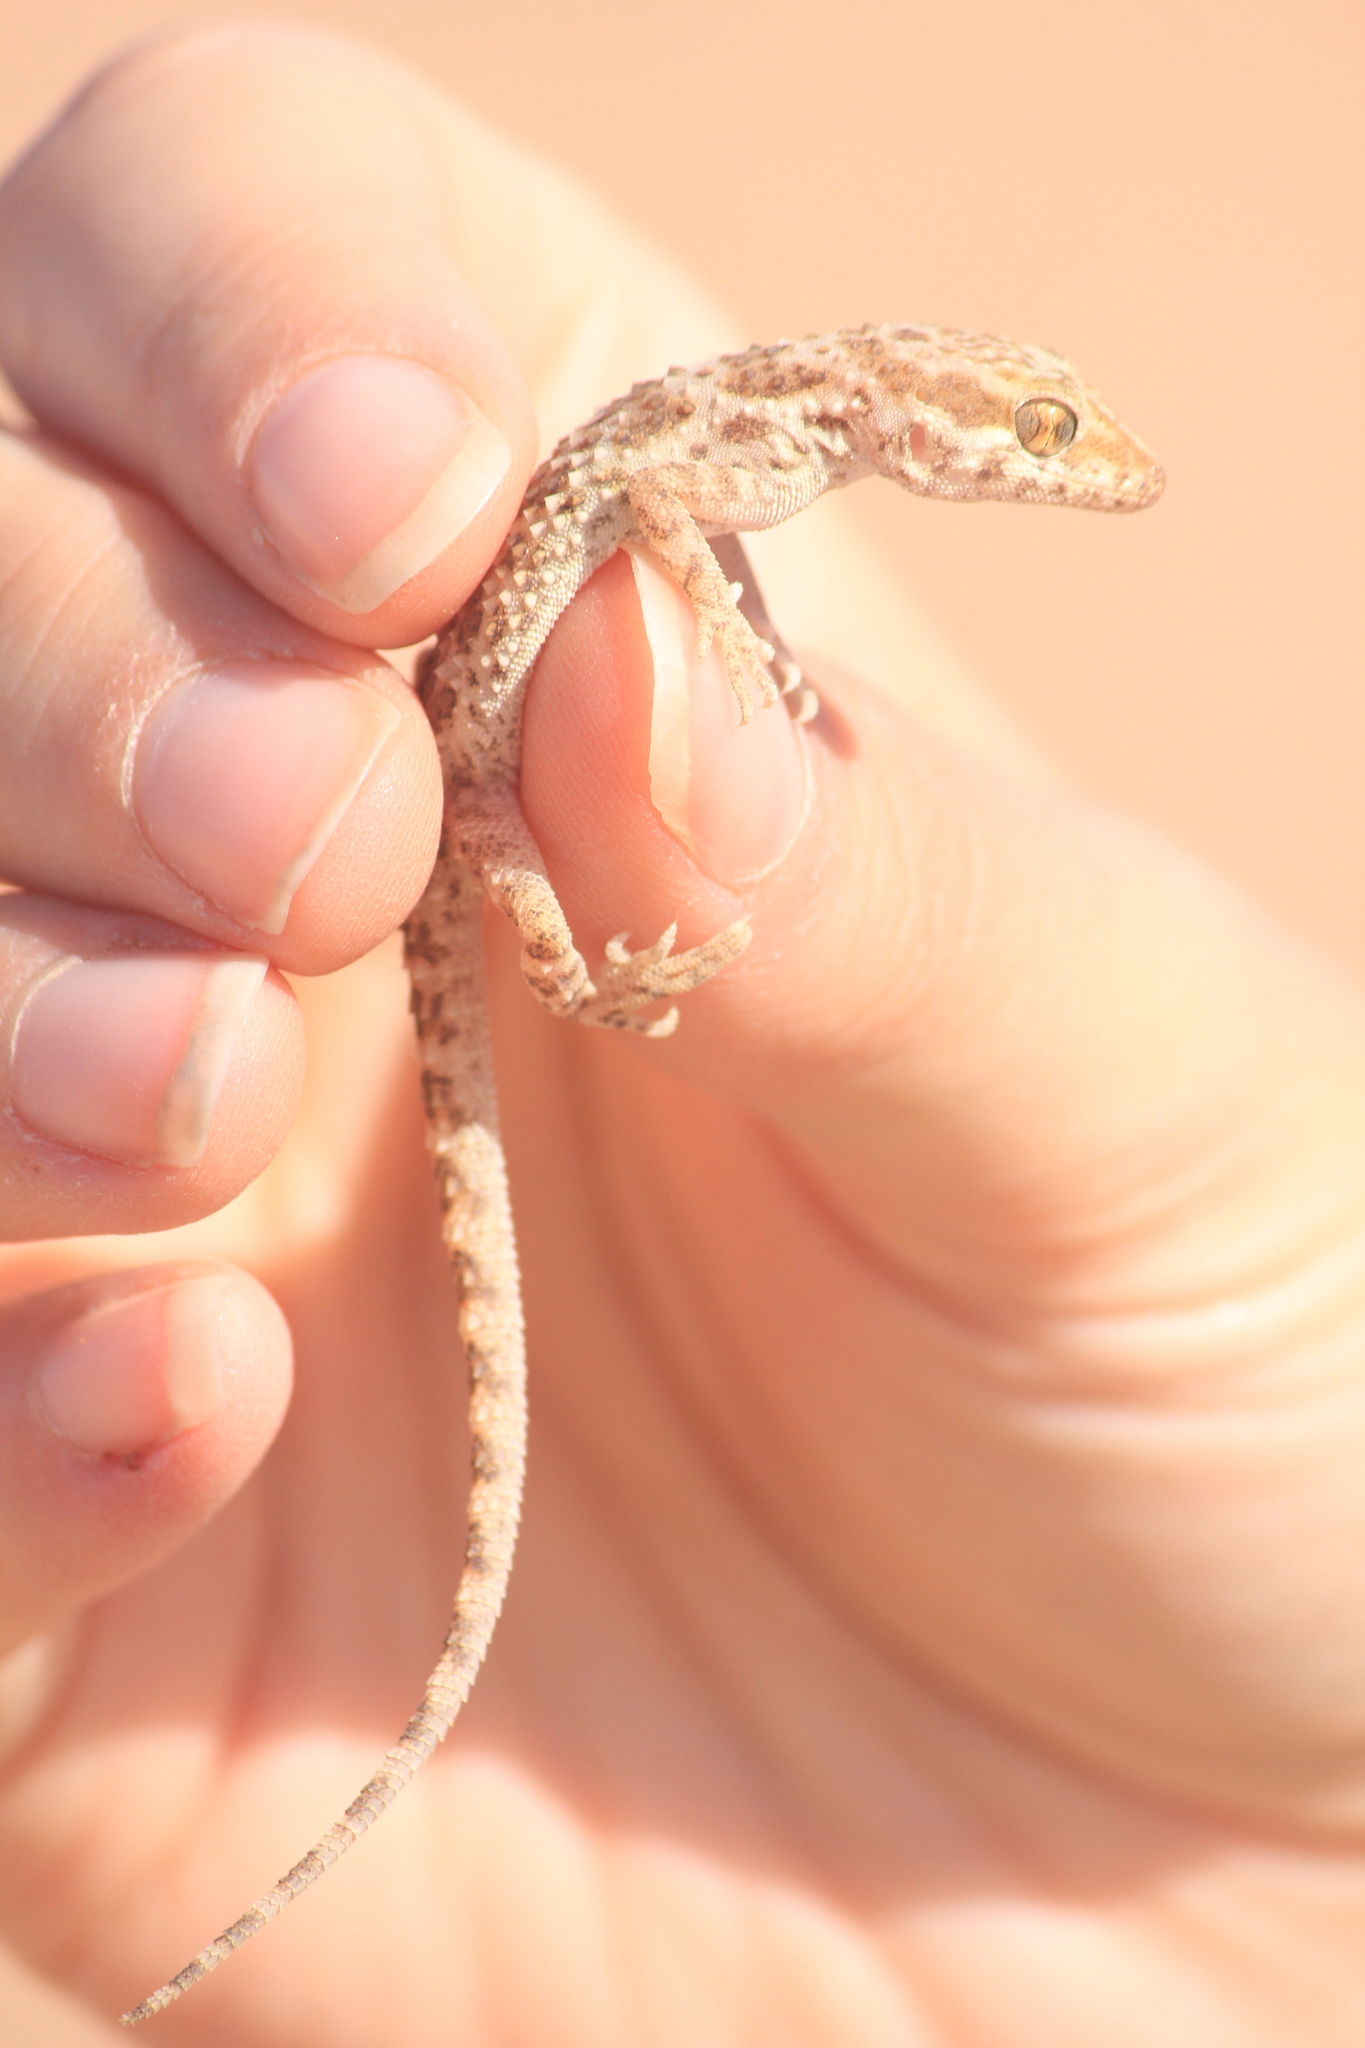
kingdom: Animalia
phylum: Chordata
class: Squamata
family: Gekkonidae
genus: Bunopus
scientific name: Bunopus tuberculatus
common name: Southern tuberculated gecko
